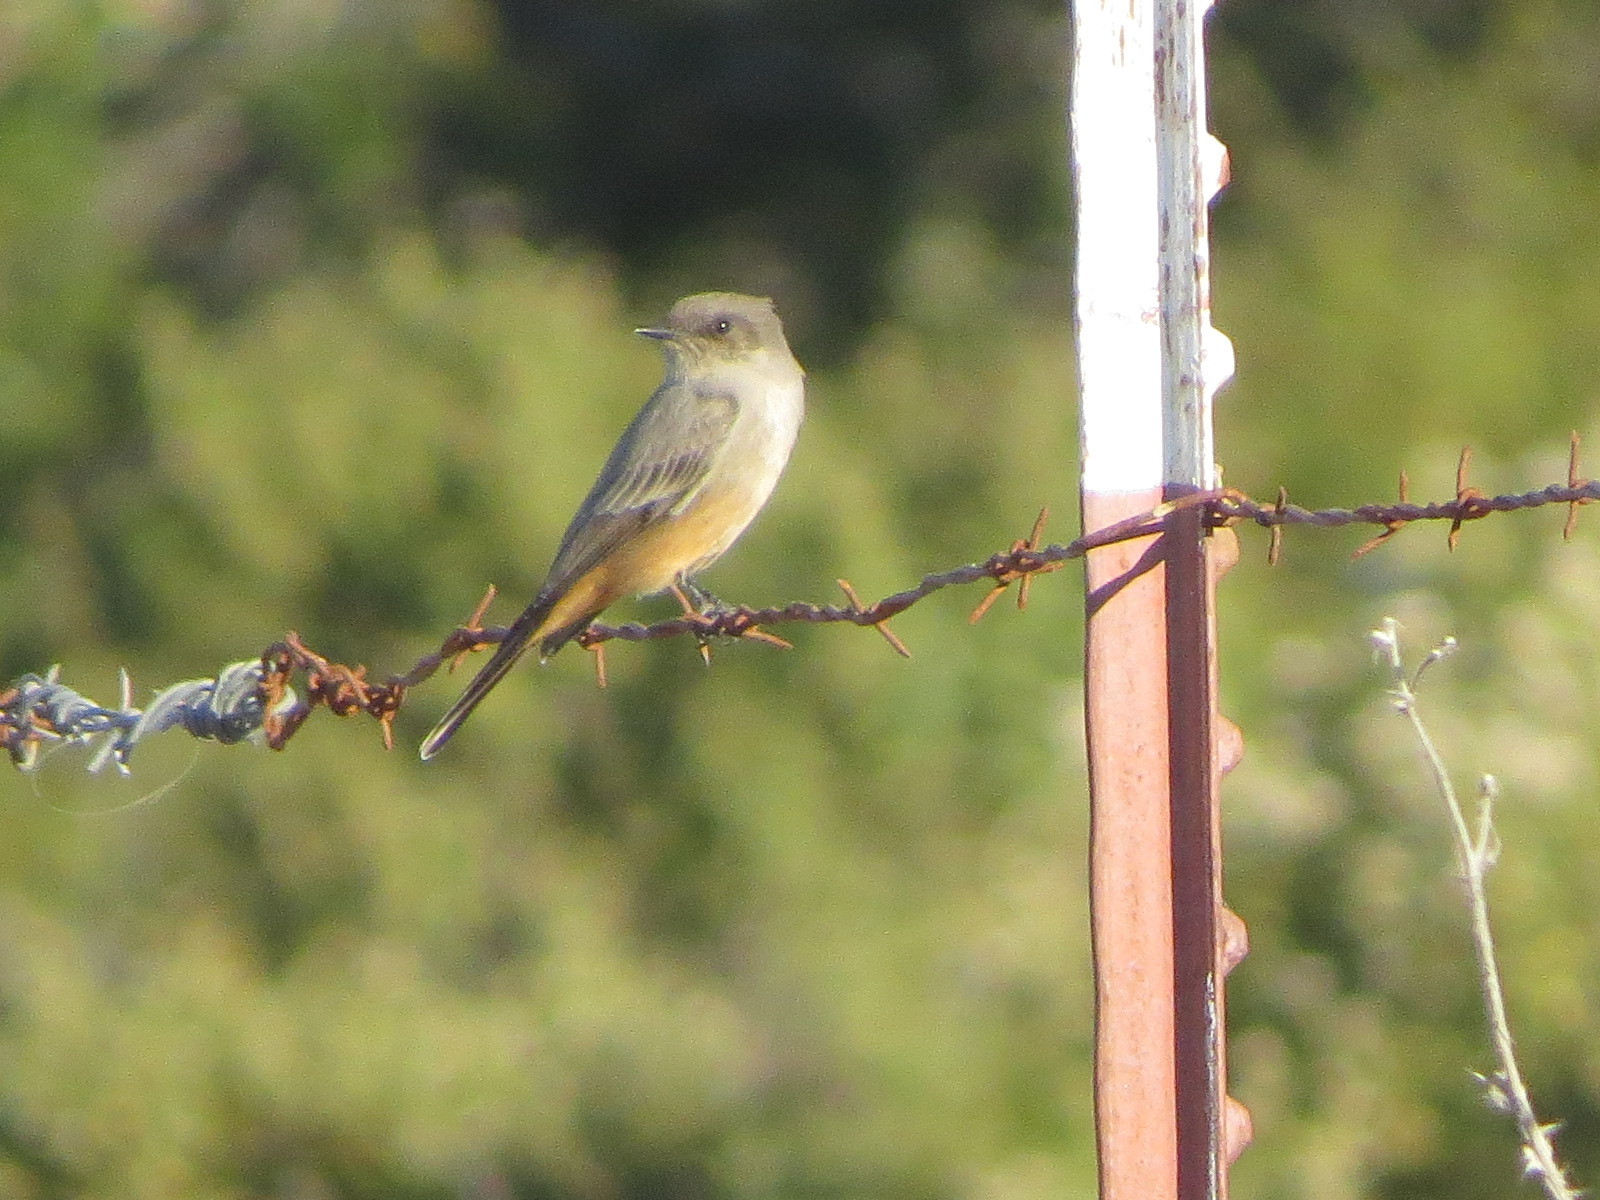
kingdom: Animalia
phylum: Chordata
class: Aves
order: Passeriformes
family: Tyrannidae
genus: Sayornis
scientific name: Sayornis saya
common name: Say's phoebe
